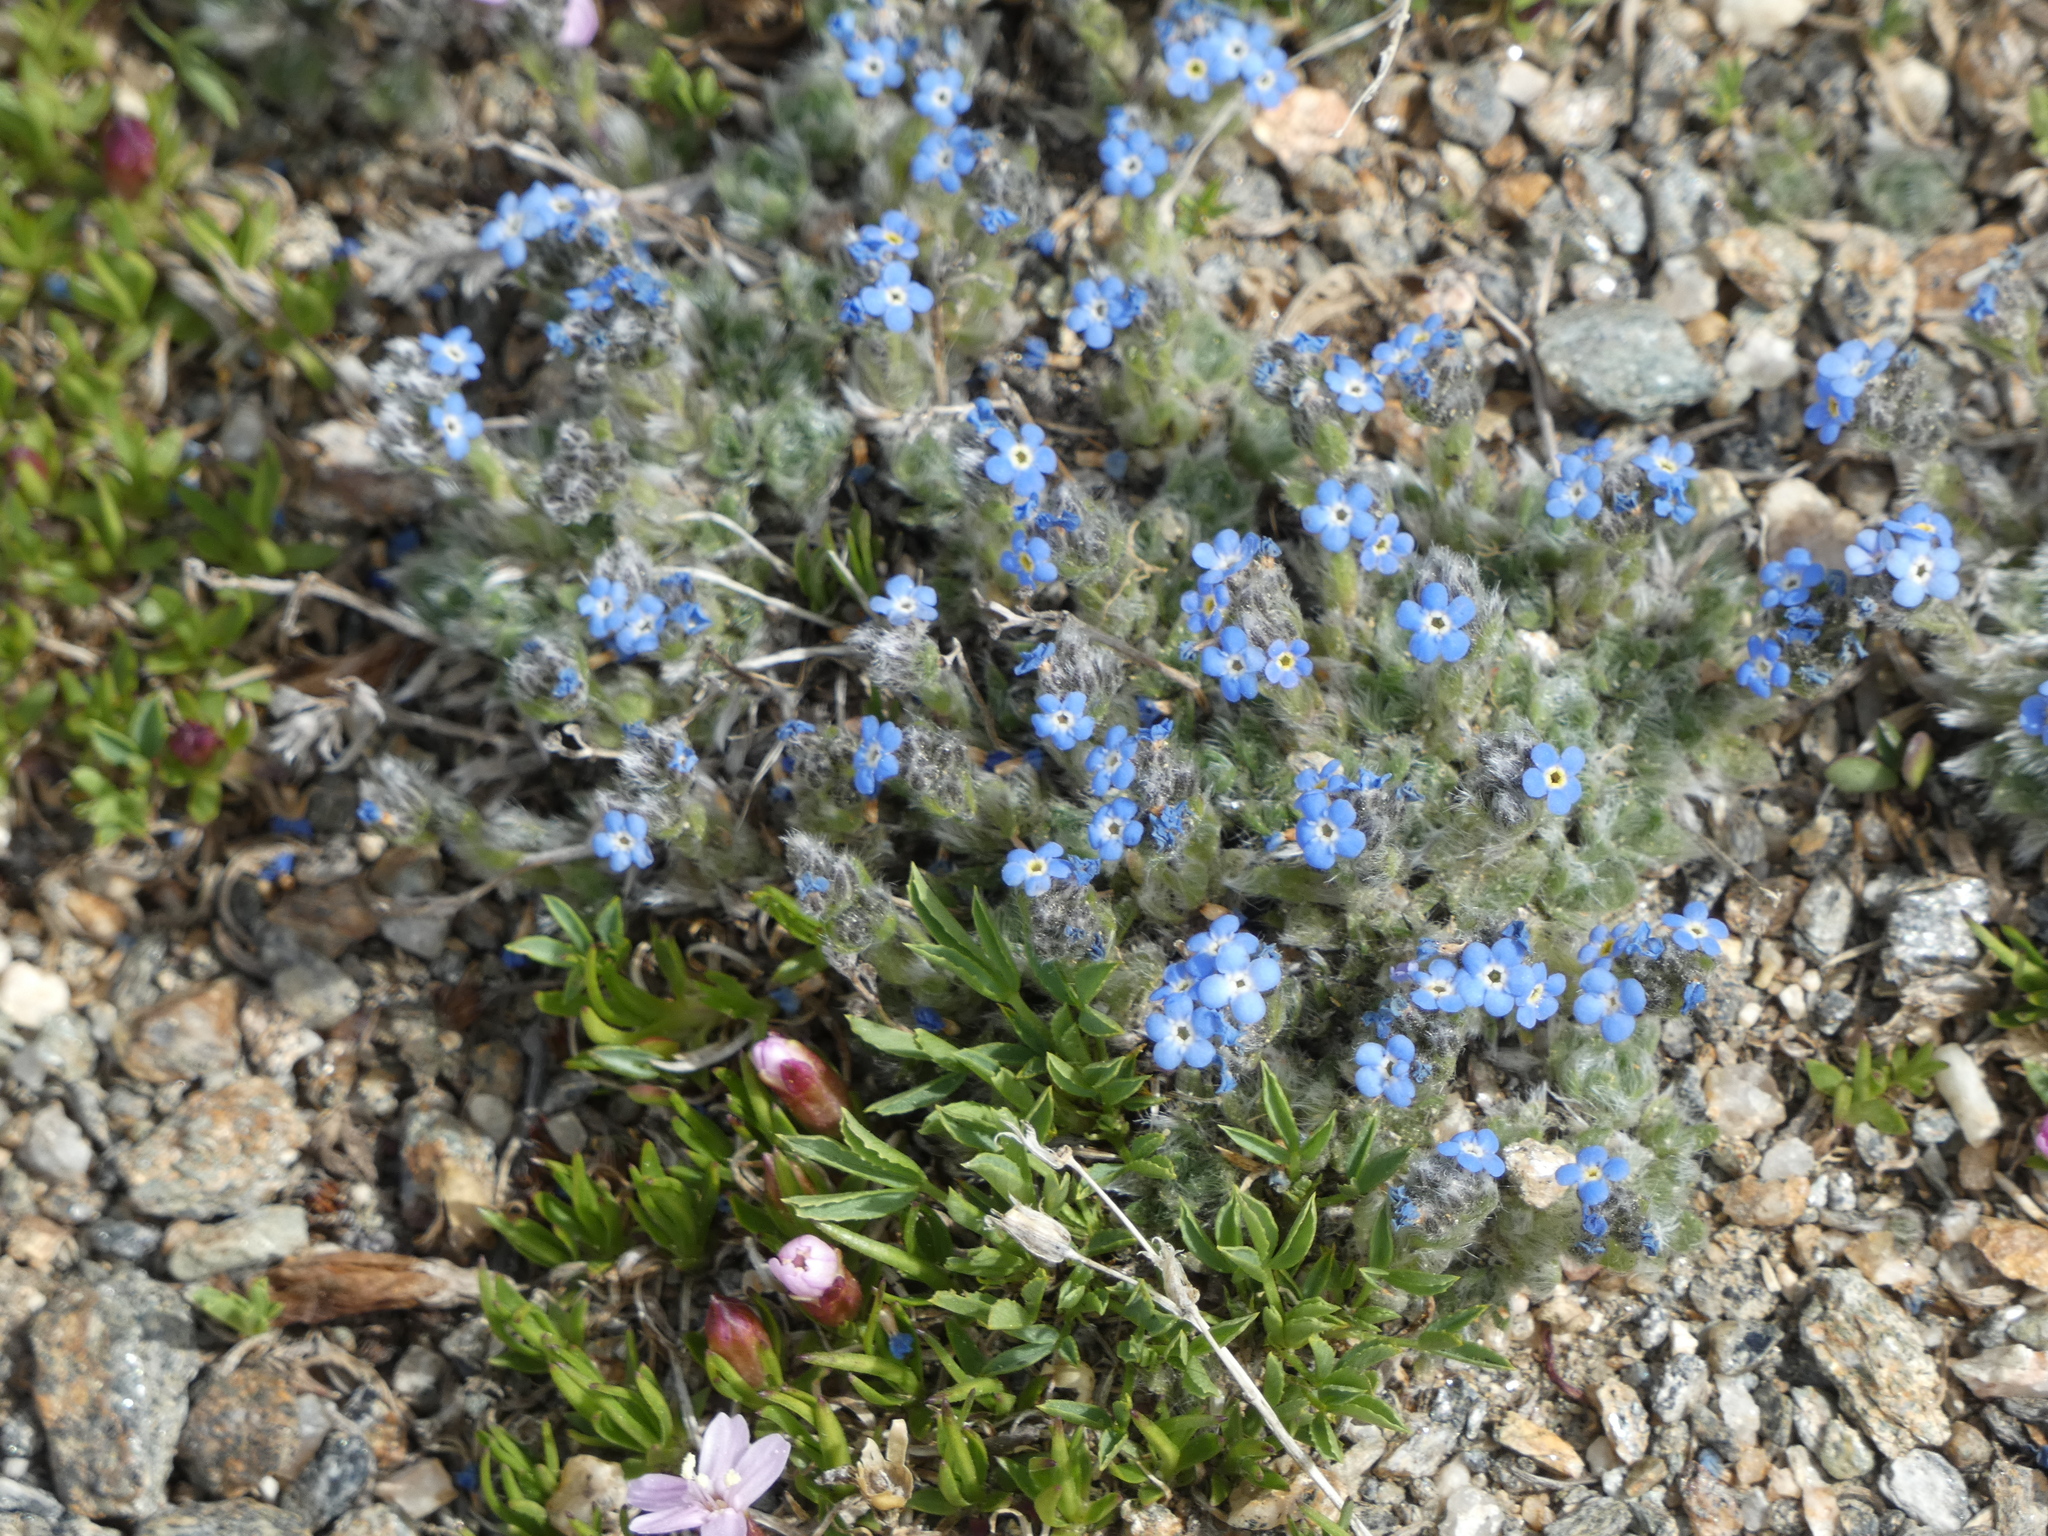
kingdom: Plantae
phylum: Tracheophyta
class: Magnoliopsida
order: Boraginales
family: Boraginaceae
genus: Eritrichium
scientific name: Eritrichium argenteum
